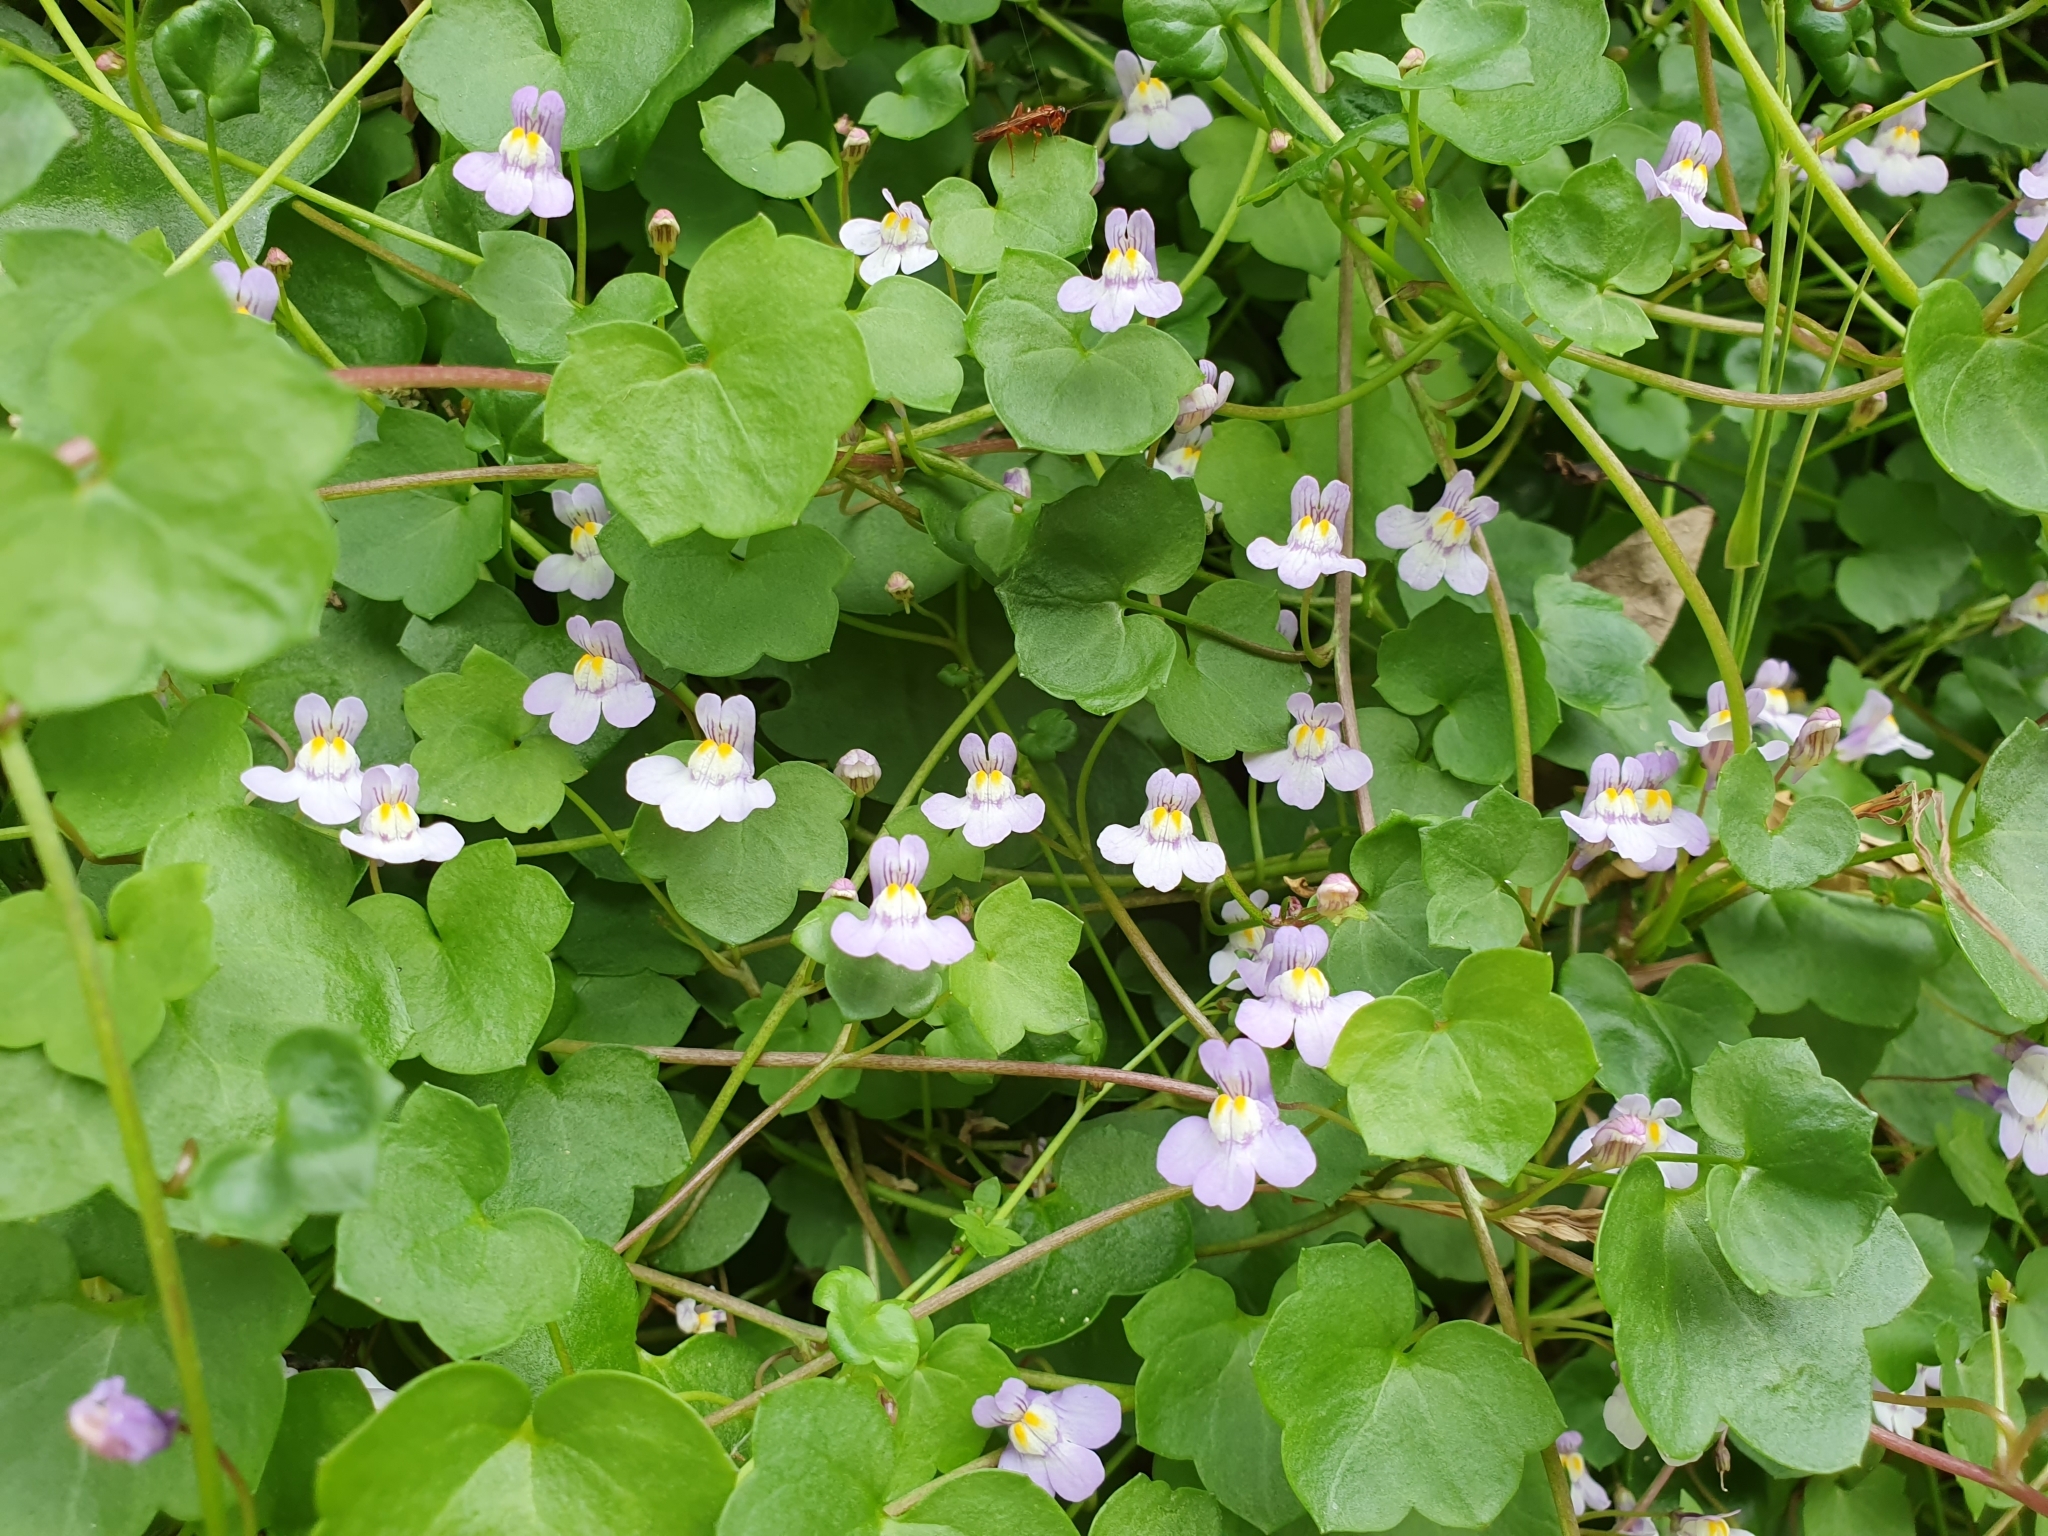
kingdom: Plantae
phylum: Tracheophyta
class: Magnoliopsida
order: Lamiales
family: Plantaginaceae
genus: Cymbalaria
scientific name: Cymbalaria muralis
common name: Ivy-leaved toadflax
